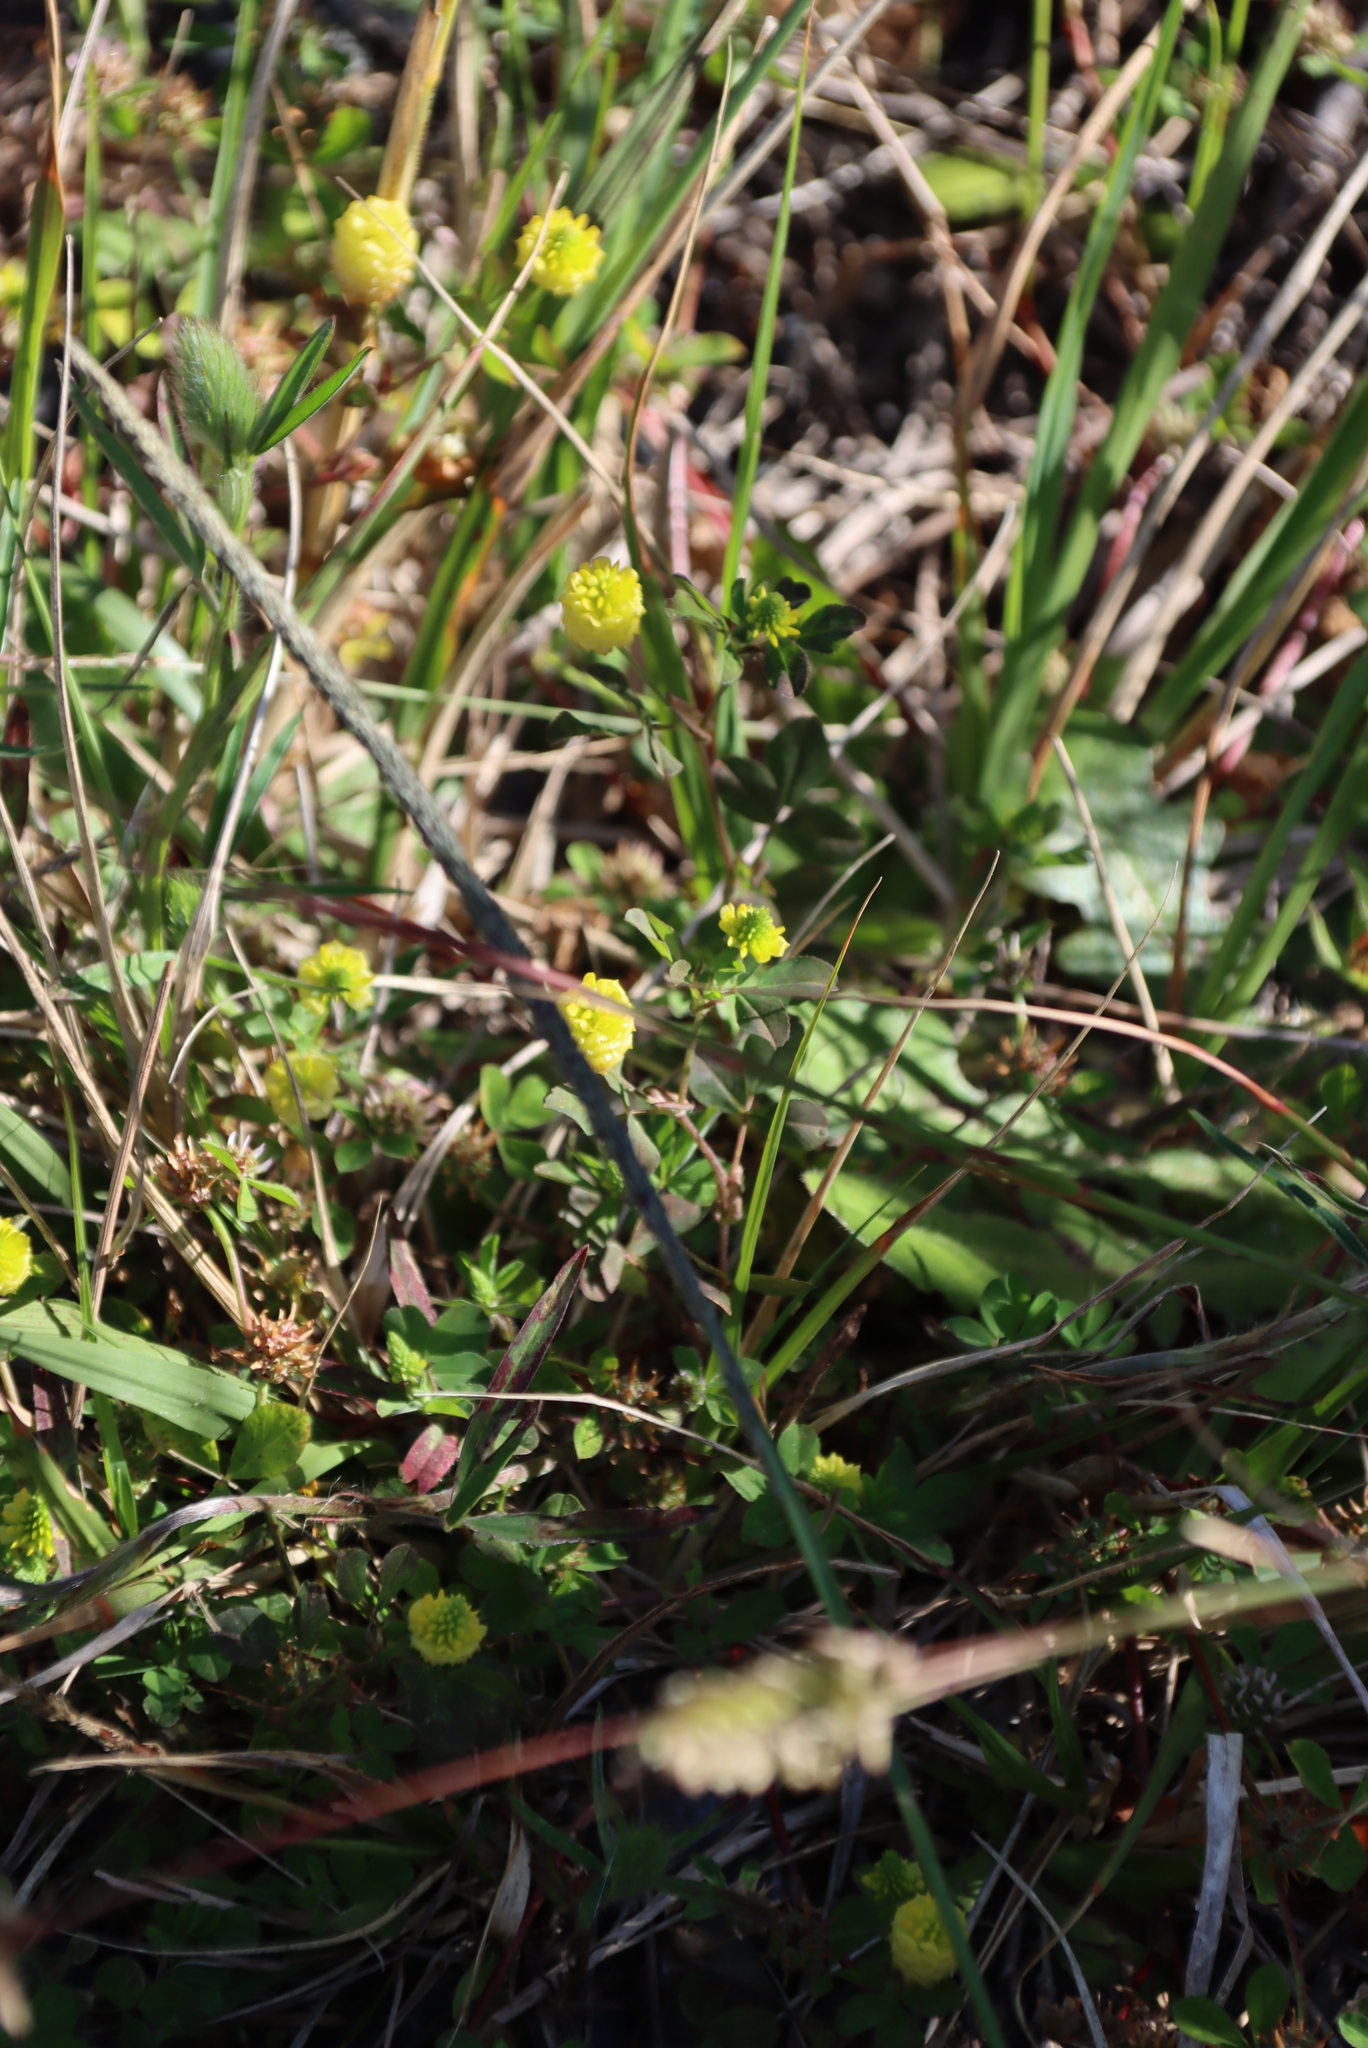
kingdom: Plantae
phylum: Tracheophyta
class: Magnoliopsida
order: Fabales
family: Fabaceae
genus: Trifolium
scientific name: Trifolium campestre
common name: Field clover
